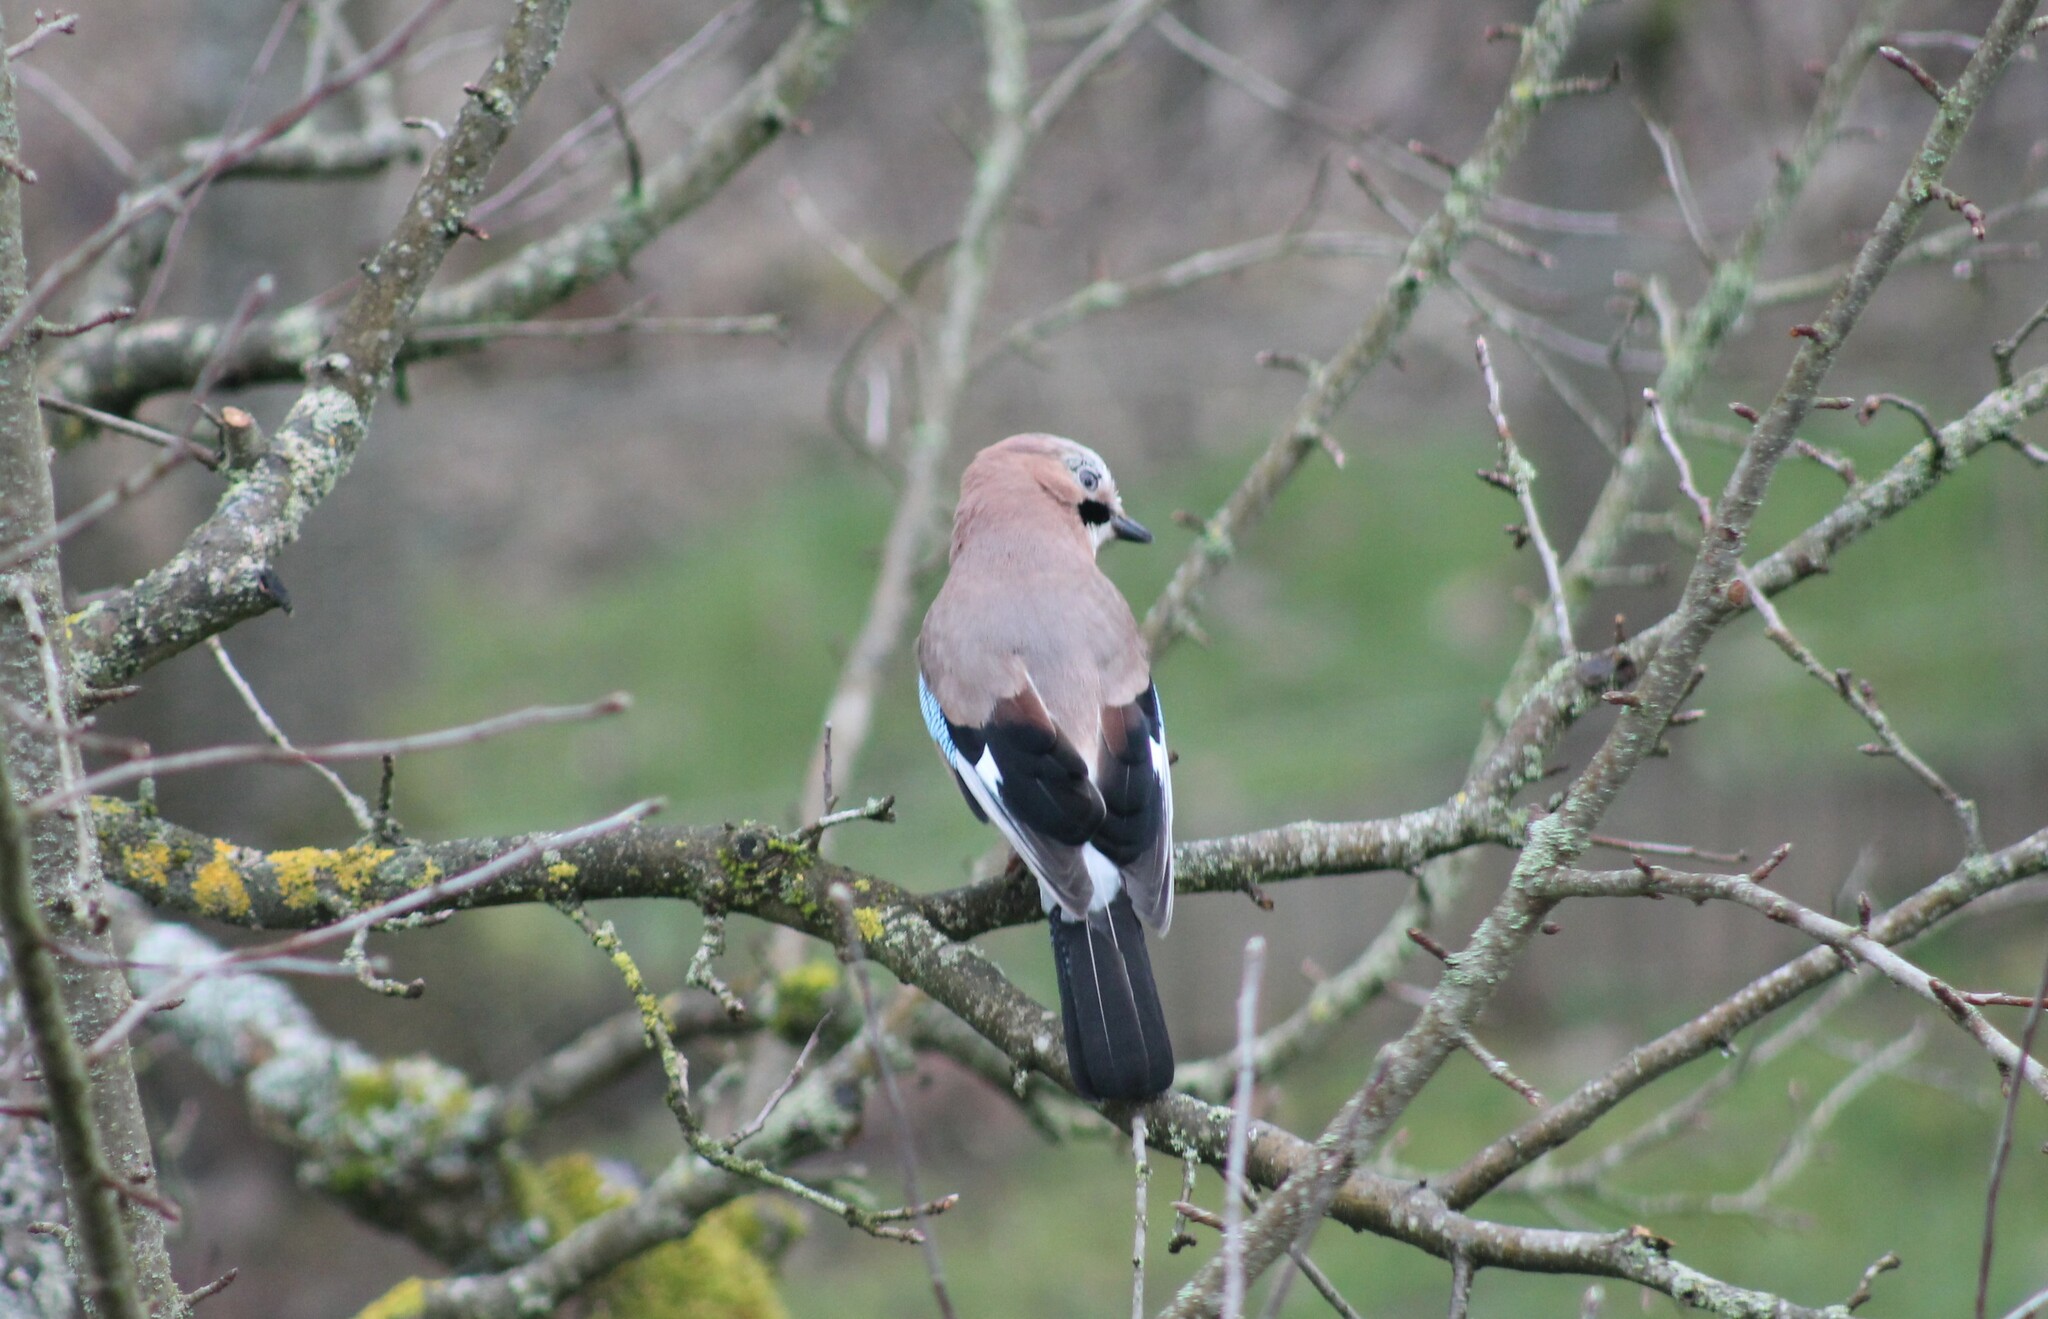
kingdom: Animalia
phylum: Chordata
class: Aves
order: Passeriformes
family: Corvidae
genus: Garrulus
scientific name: Garrulus glandarius
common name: Eurasian jay
